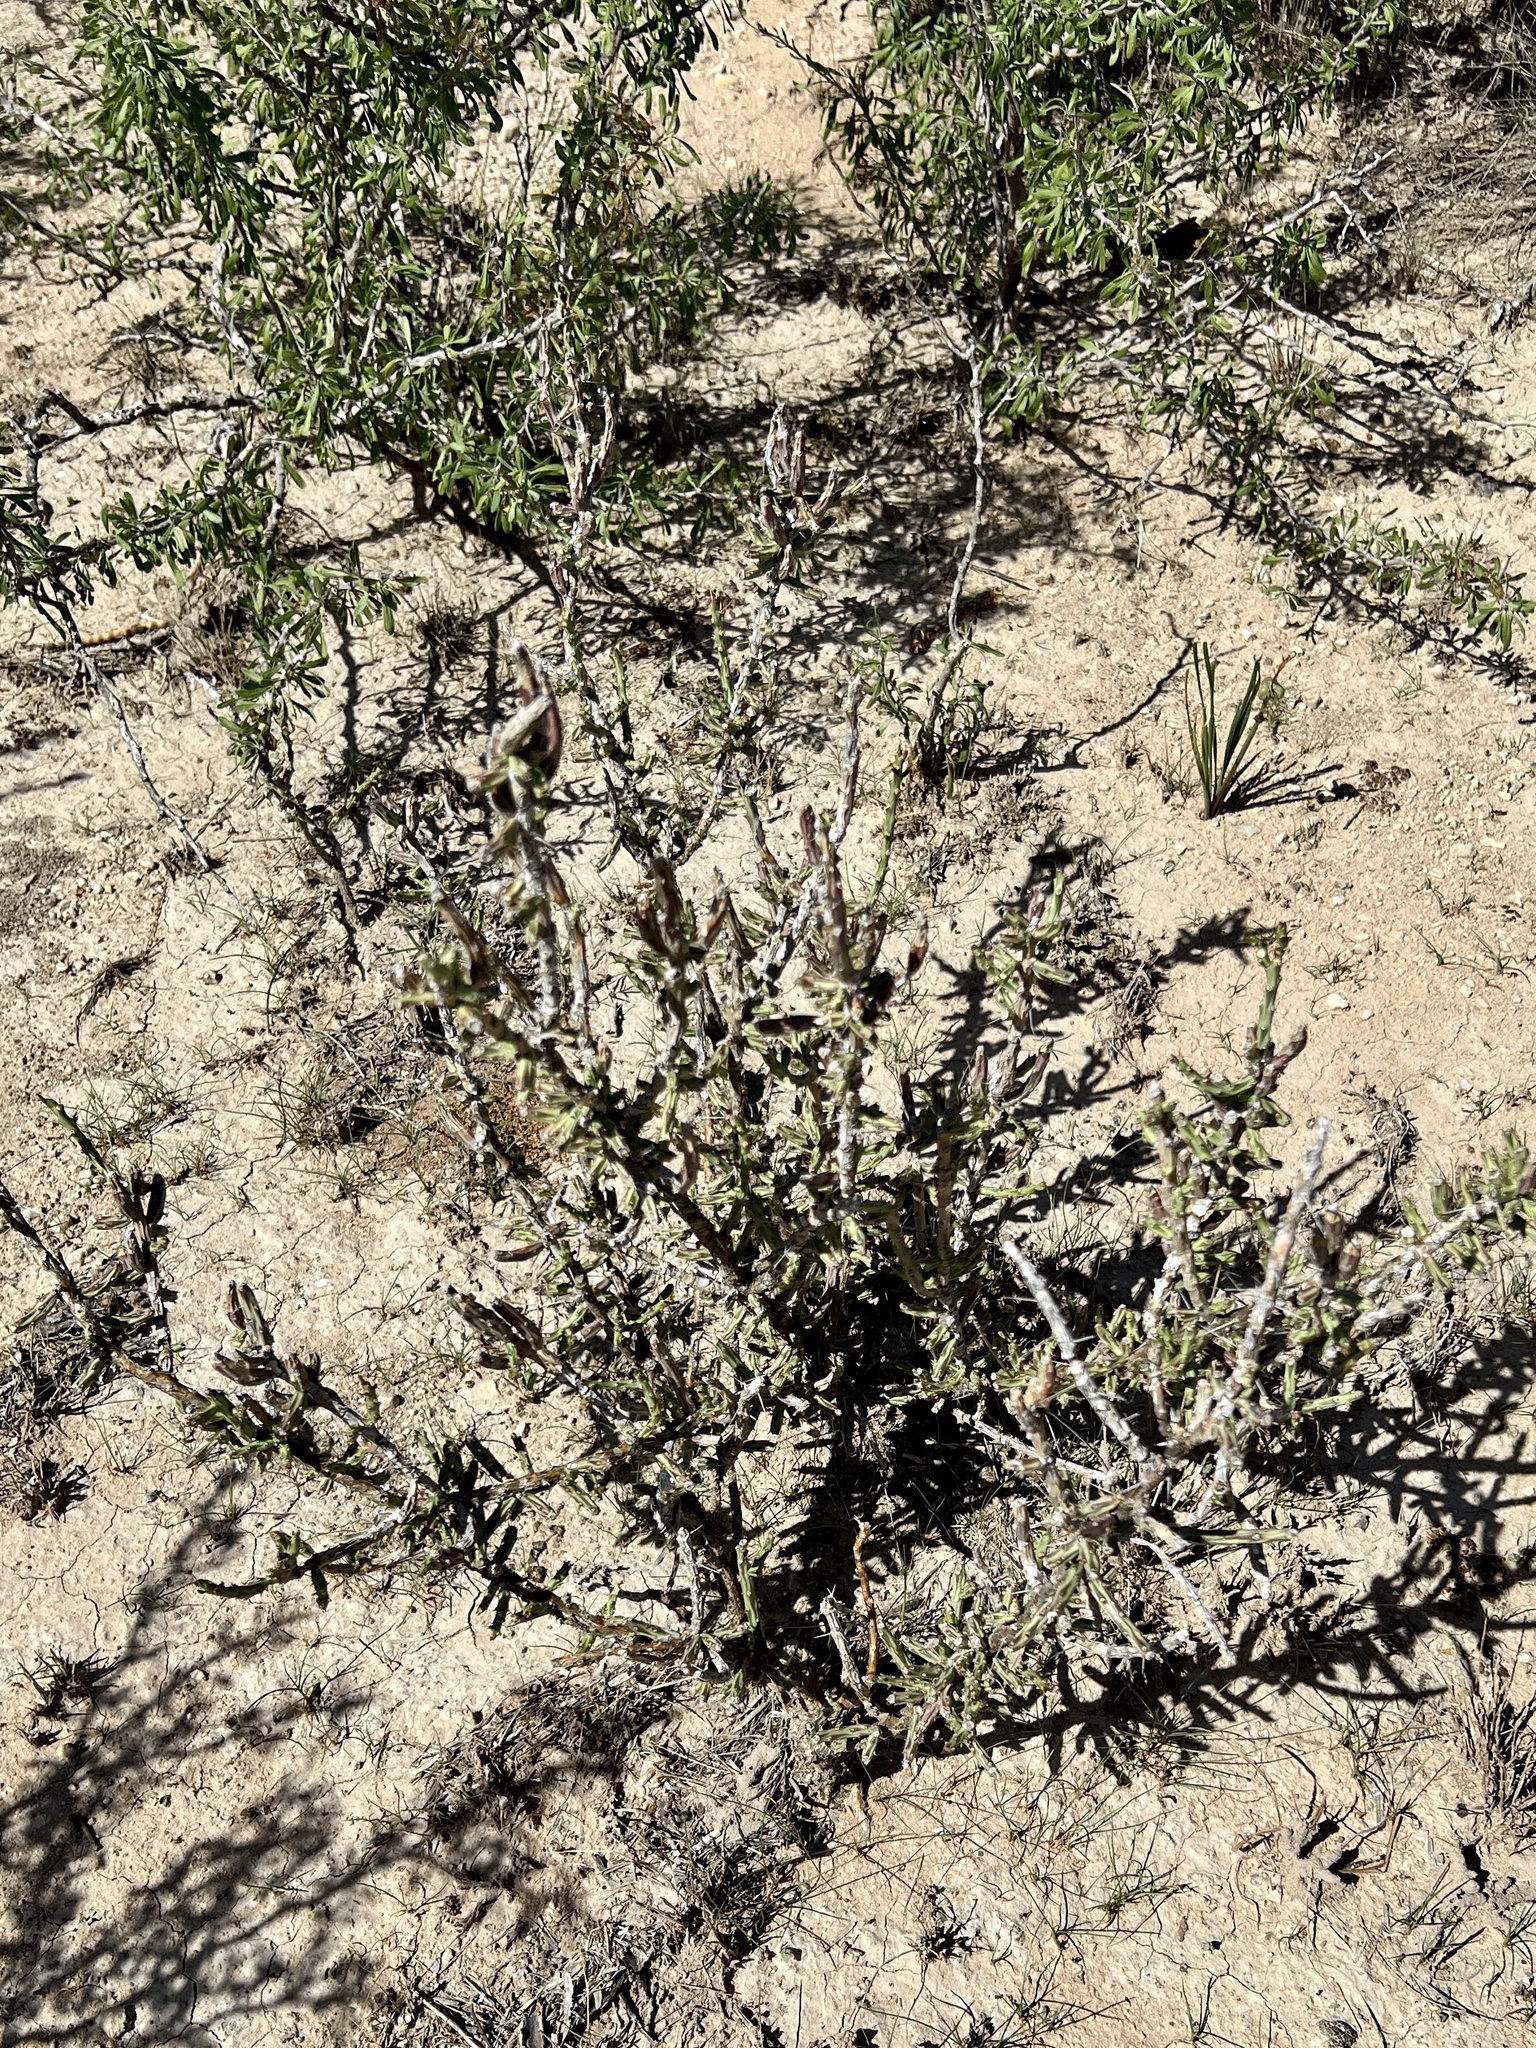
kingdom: Plantae
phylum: Tracheophyta
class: Magnoliopsida
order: Caryophyllales
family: Cactaceae
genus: Cylindropuntia
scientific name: Cylindropuntia leptocaulis
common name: Christmas cactus
